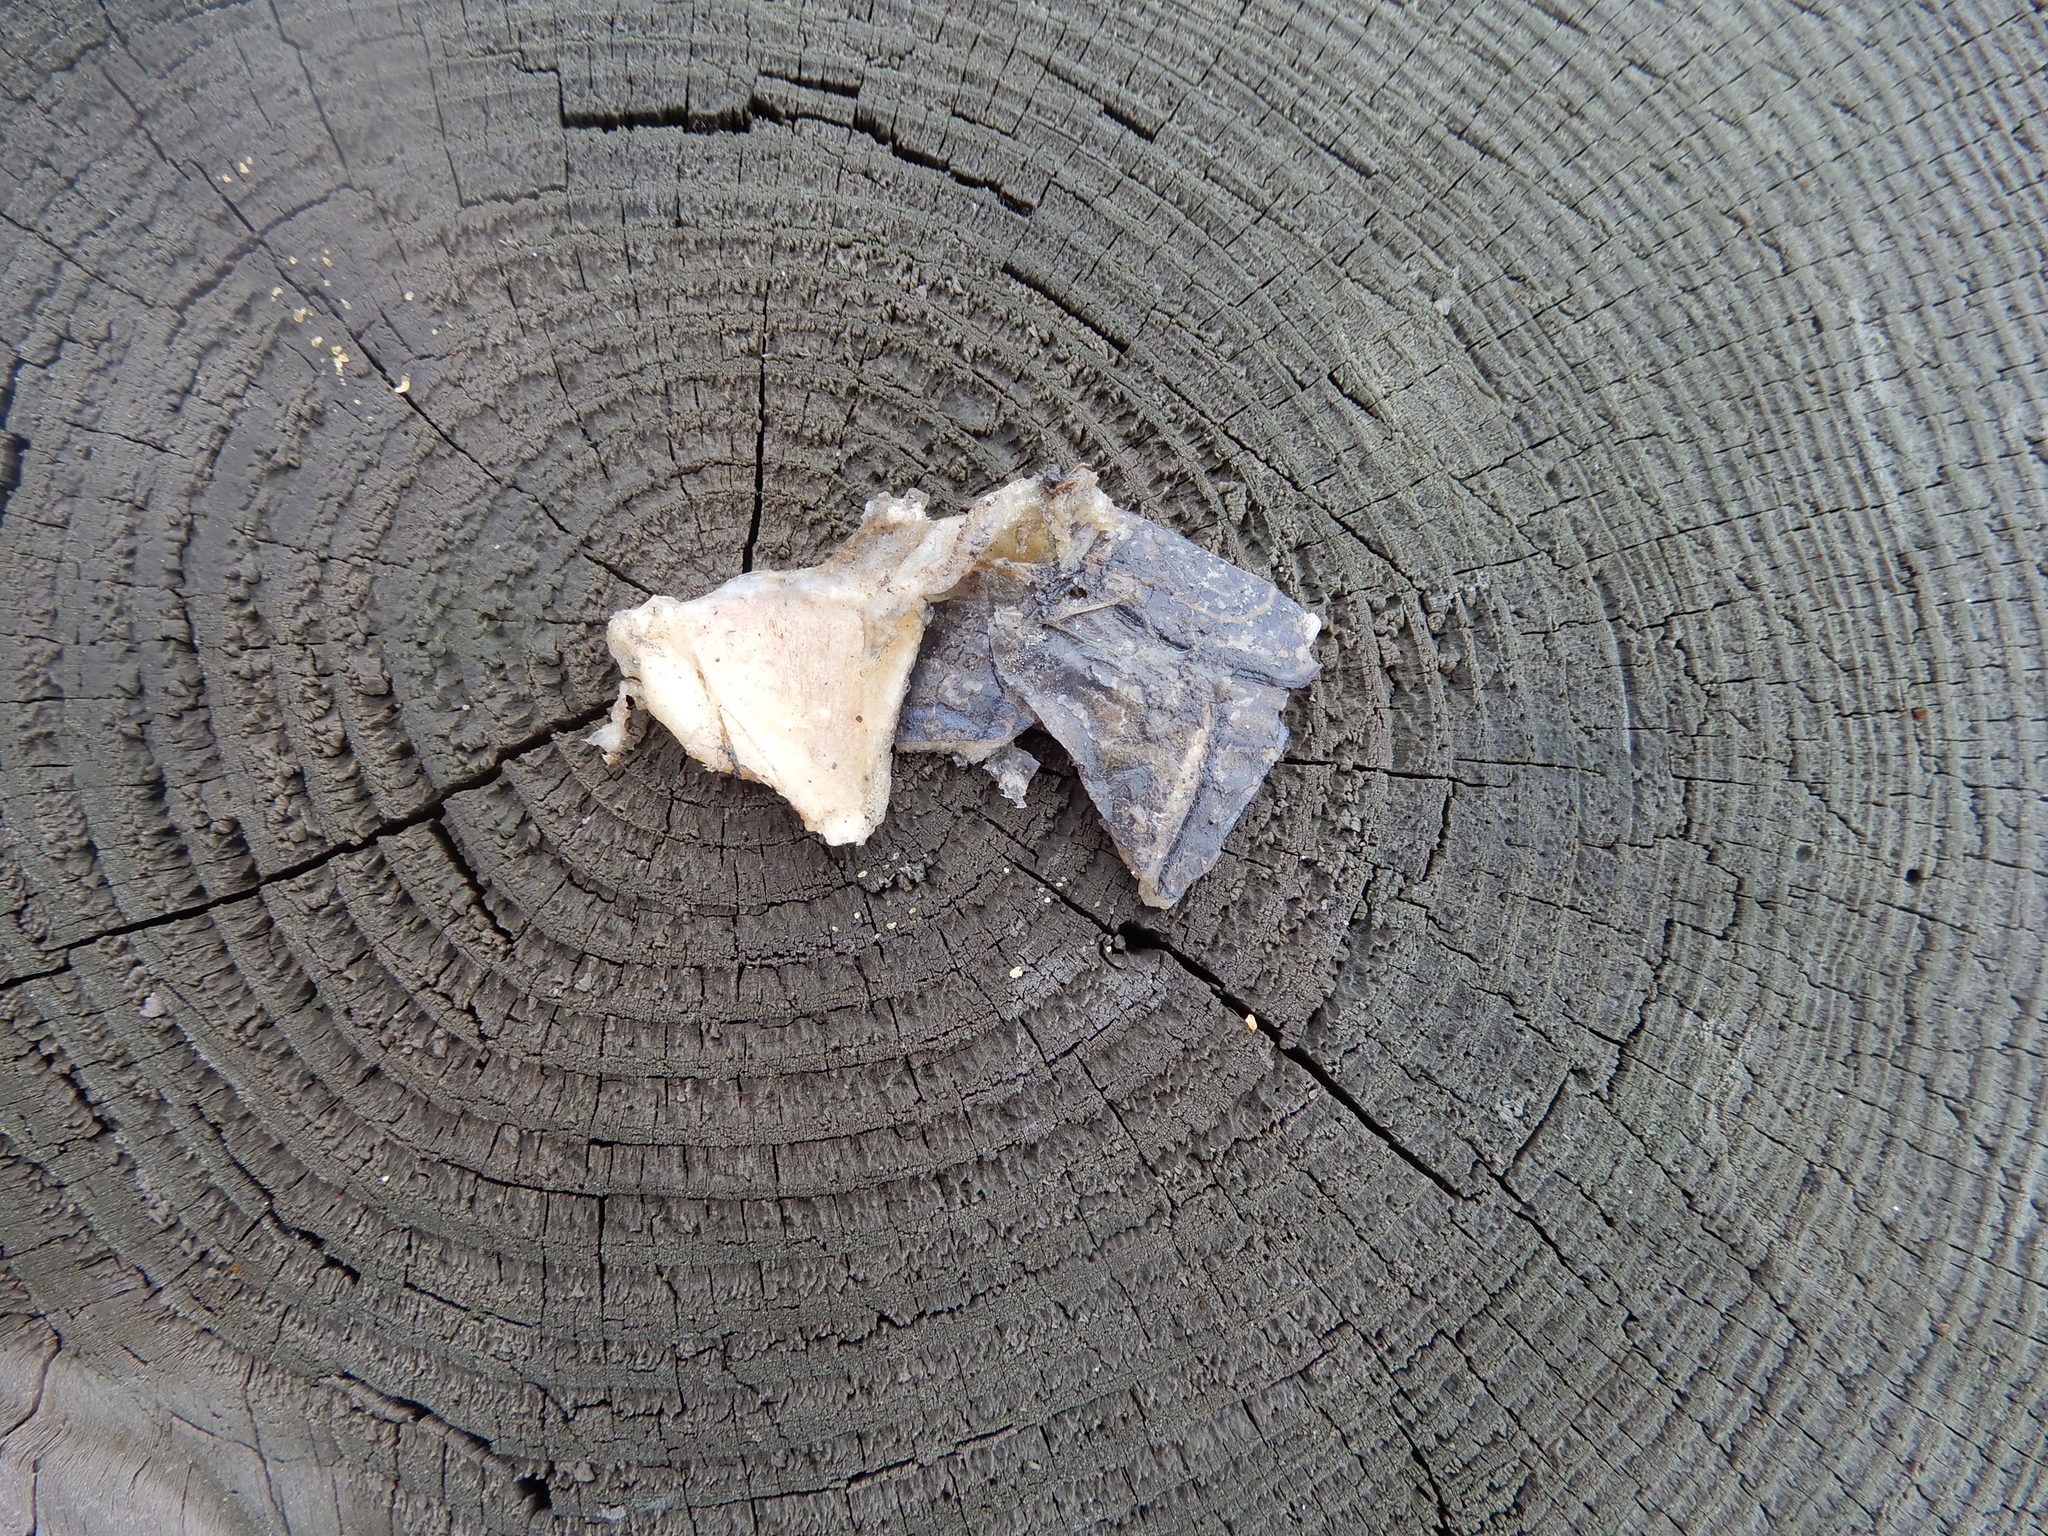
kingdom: Animalia
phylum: Chordata
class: Testudines
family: Emydidae
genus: Emys
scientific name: Emys blandingii
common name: Blanding's turtle
